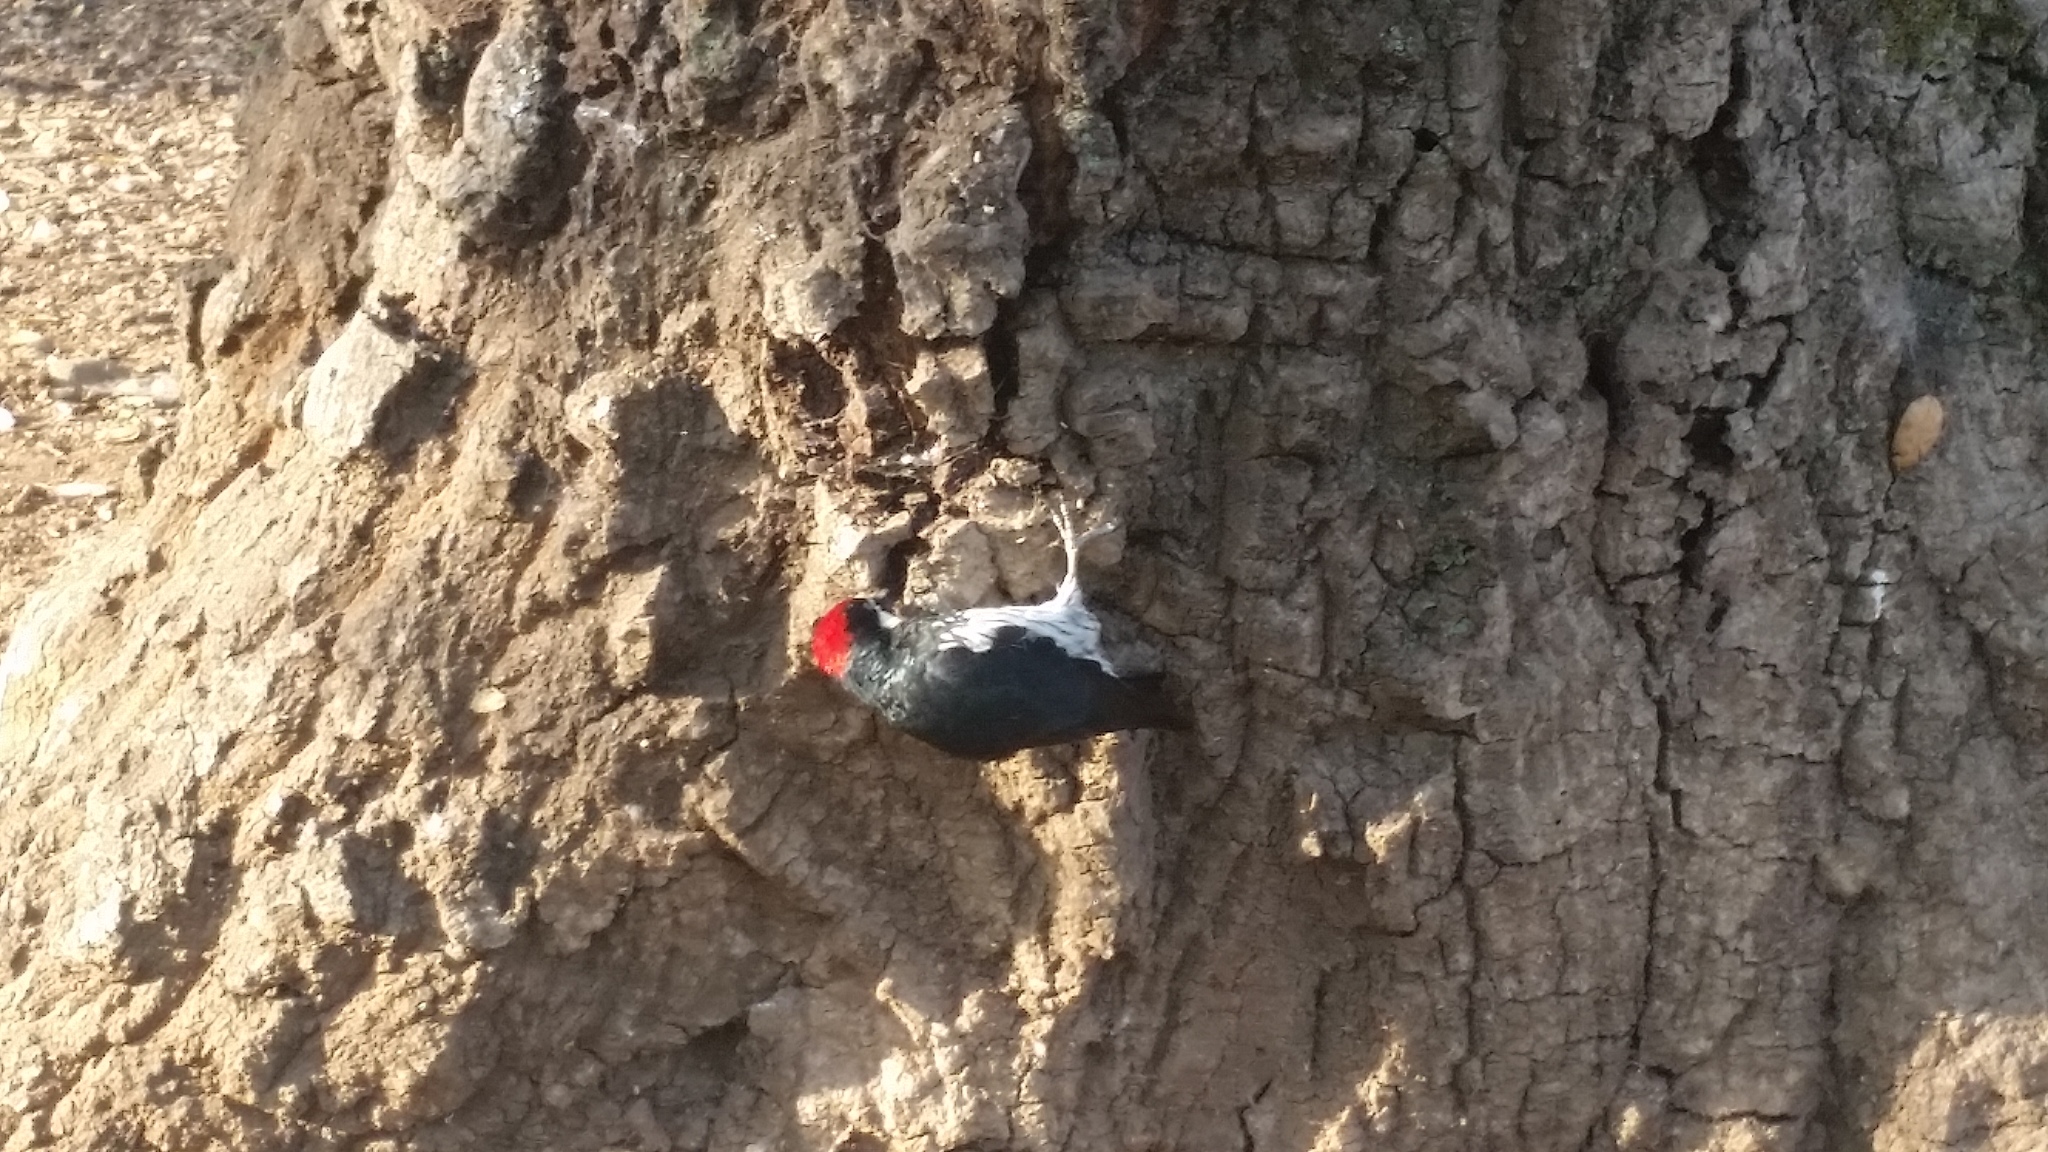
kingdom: Animalia
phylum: Chordata
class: Aves
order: Piciformes
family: Picidae
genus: Melanerpes
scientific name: Melanerpes formicivorus
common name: Acorn woodpecker
